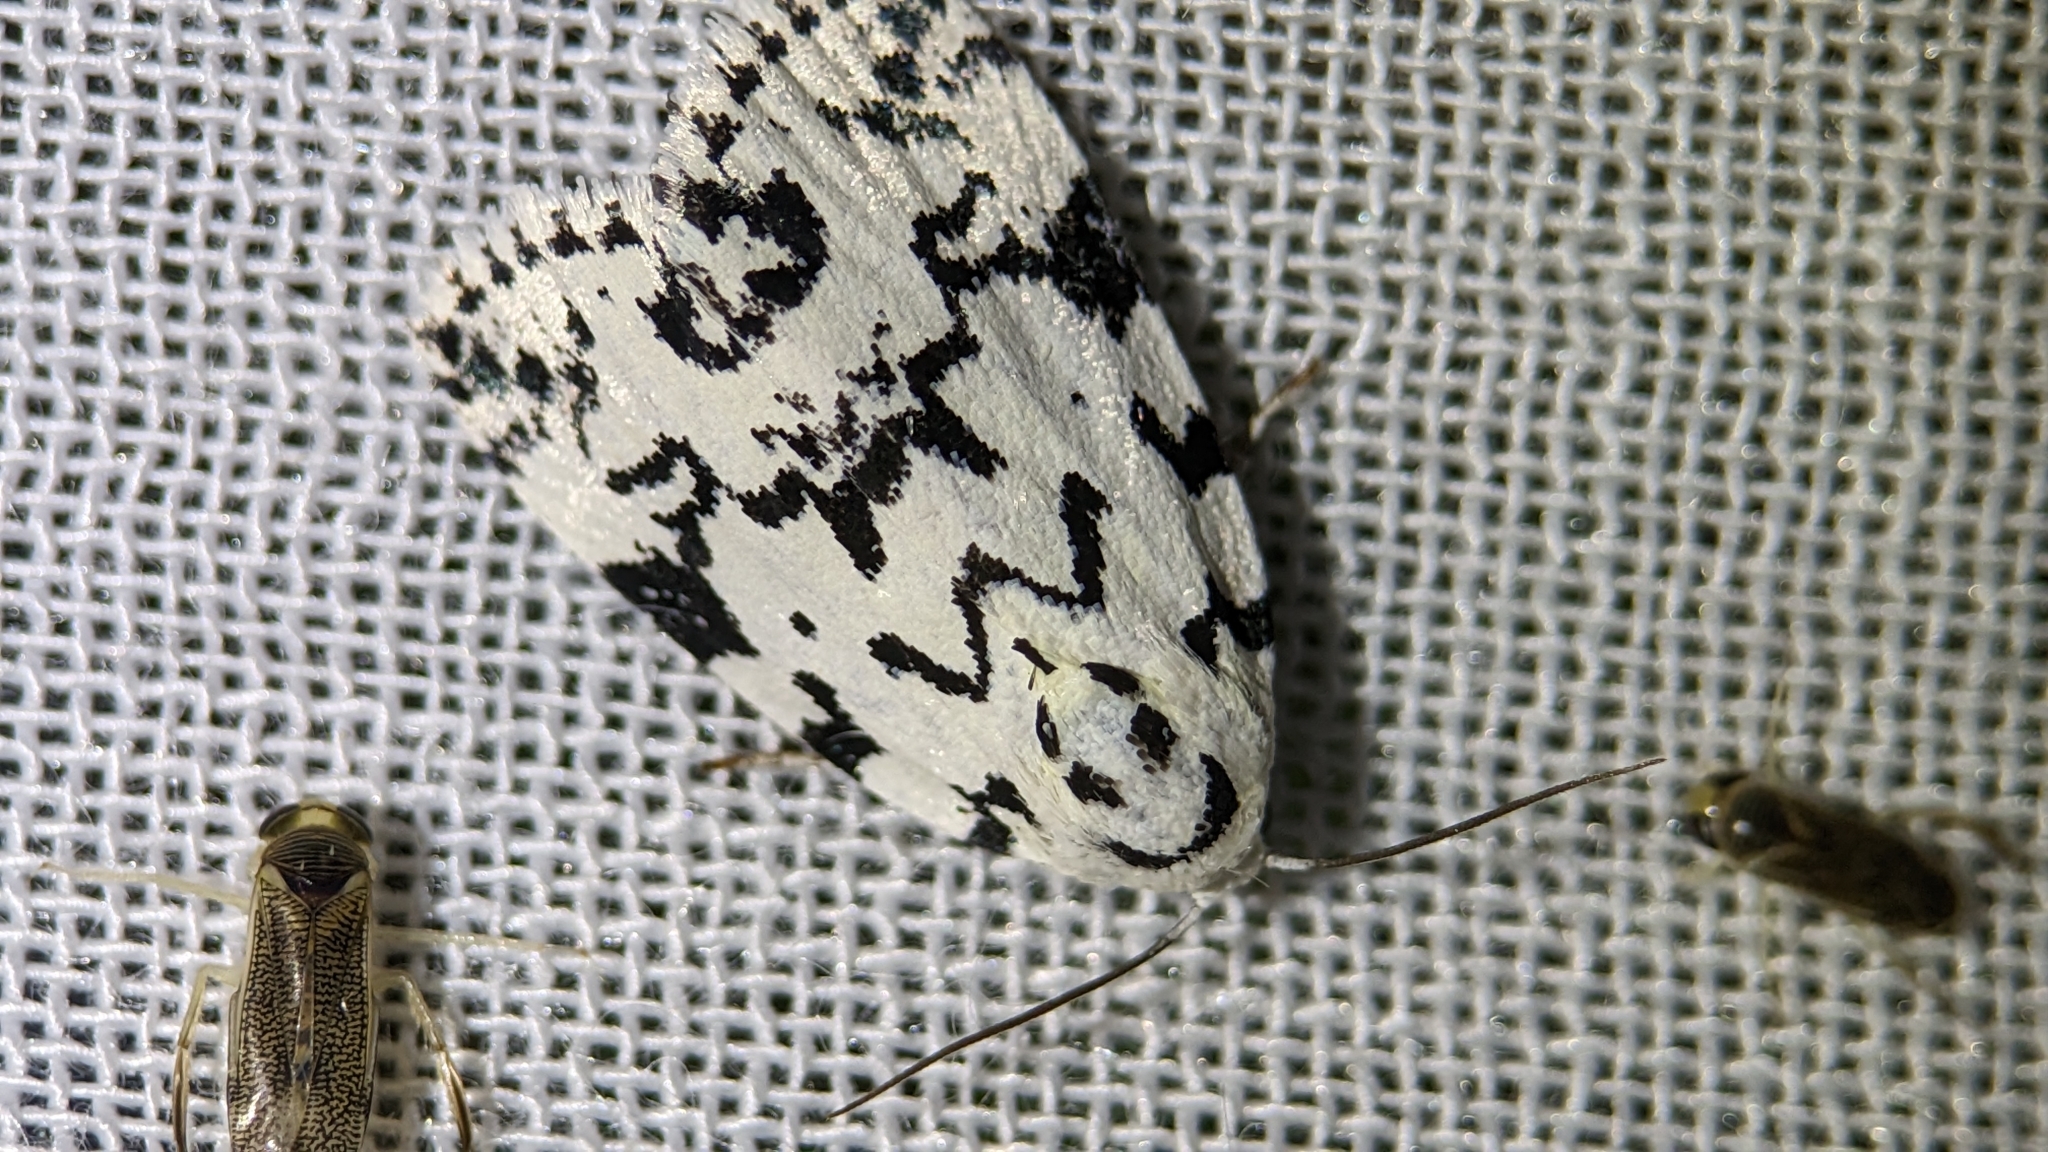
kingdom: Animalia
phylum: Arthropoda
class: Insecta
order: Lepidoptera
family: Noctuidae
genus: Polygrammate
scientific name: Polygrammate hebraeicum
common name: Hebrew moth
